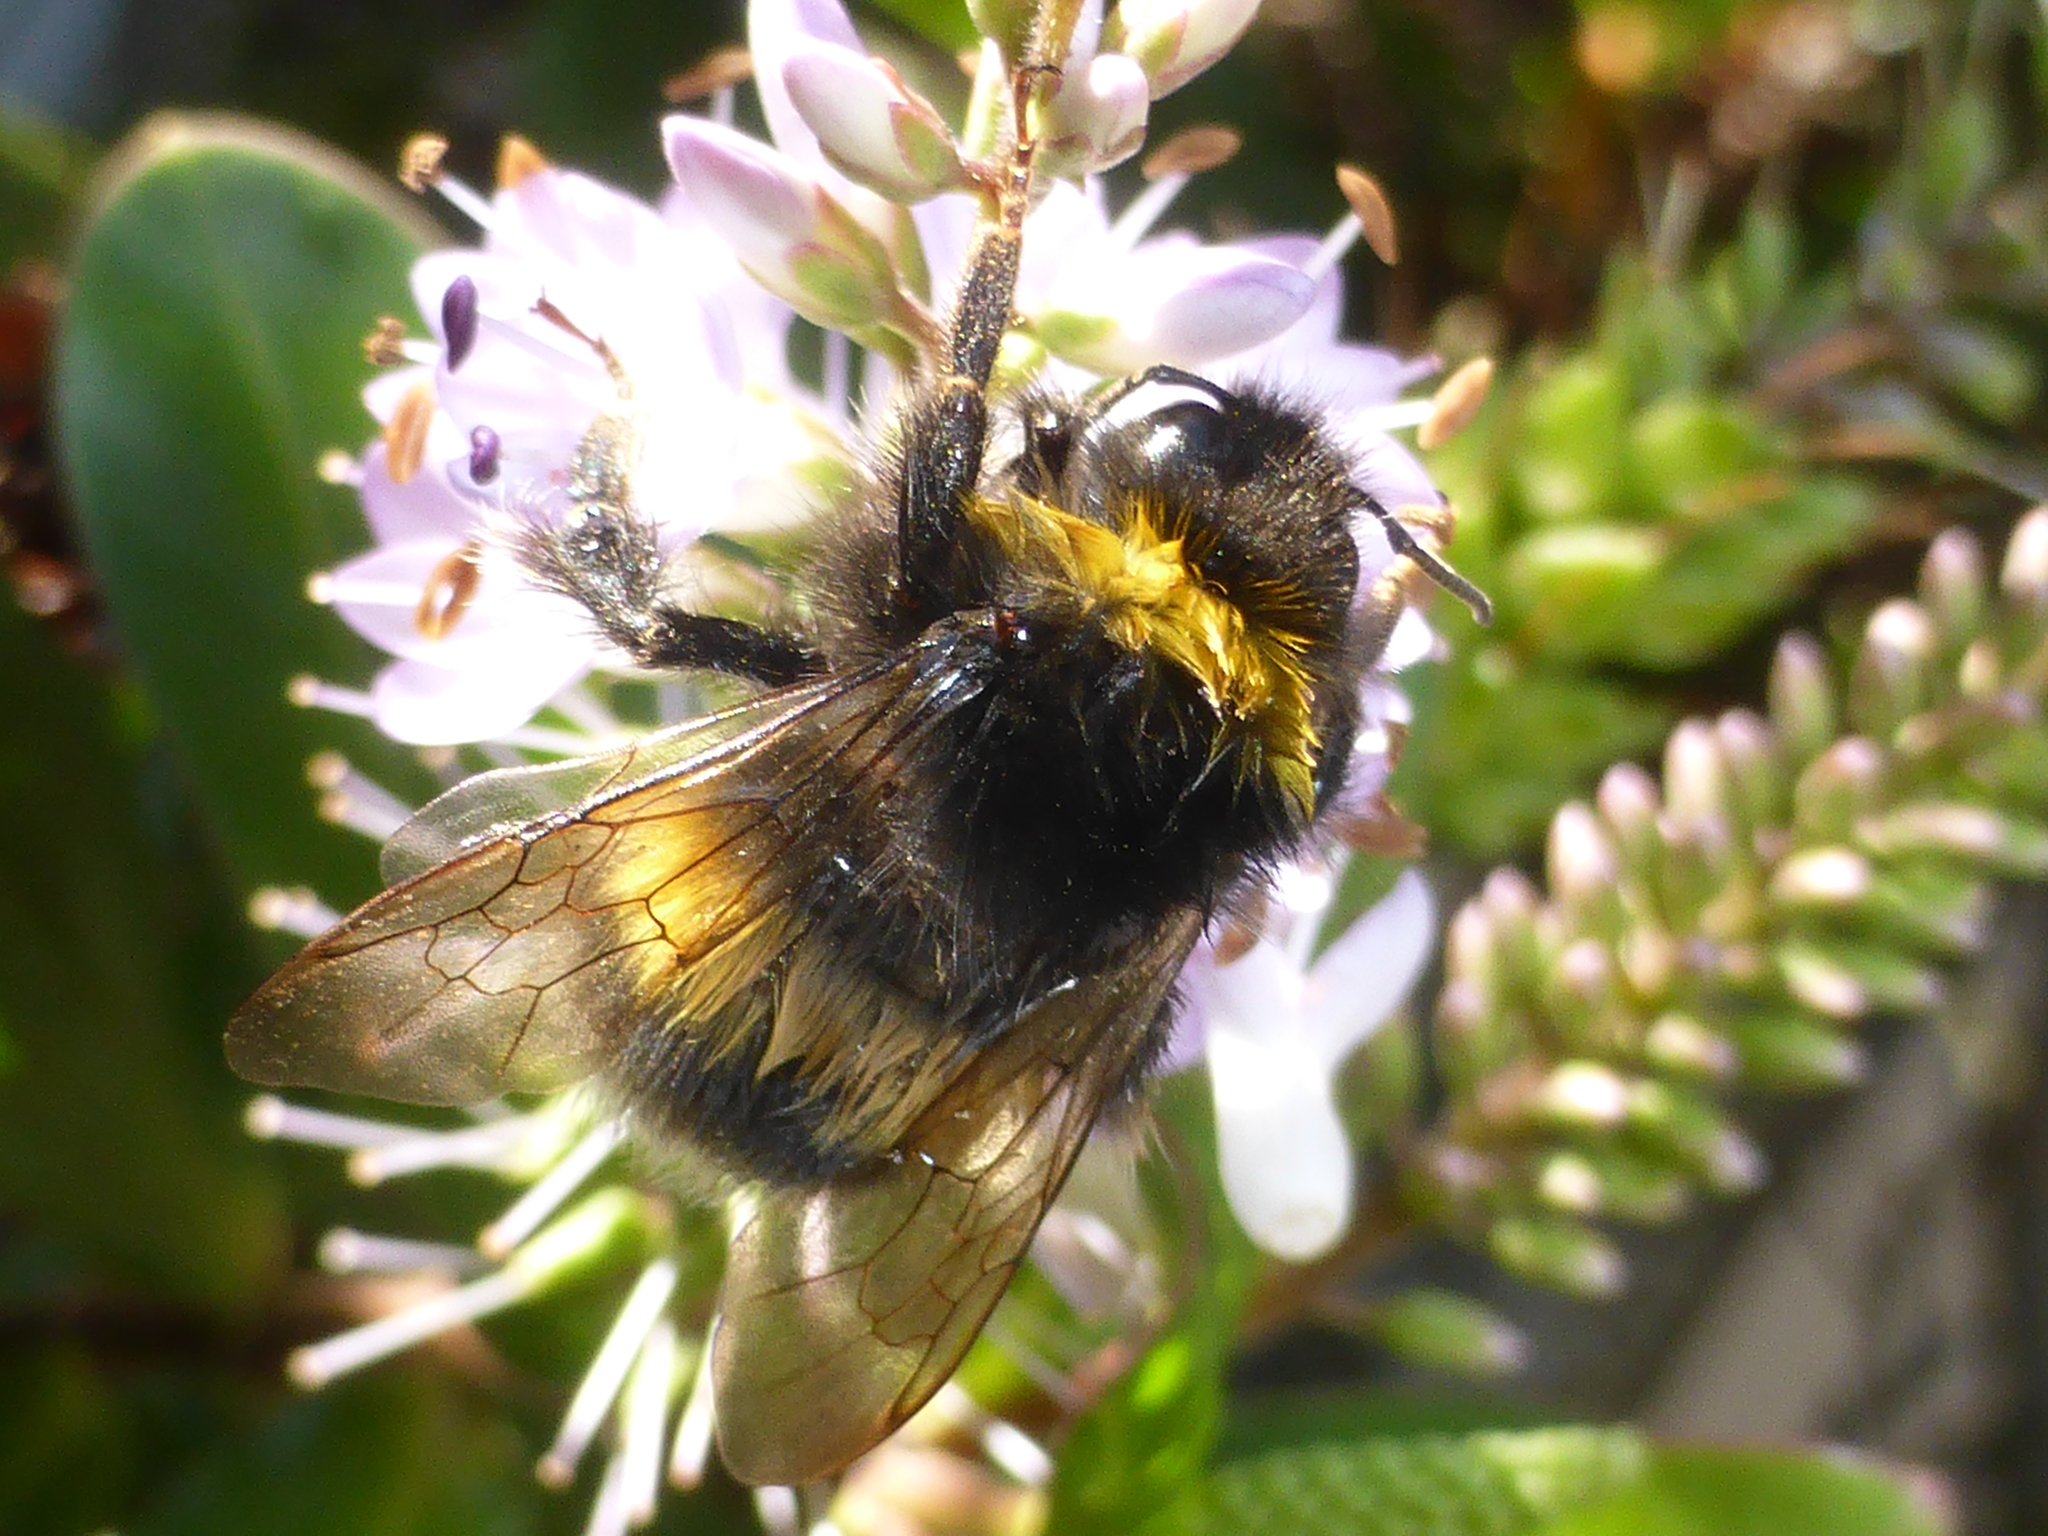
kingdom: Animalia
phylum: Arthropoda
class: Insecta
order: Hymenoptera
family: Apidae
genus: Bombus
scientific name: Bombus terrestris
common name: Buff-tailed bumblebee
